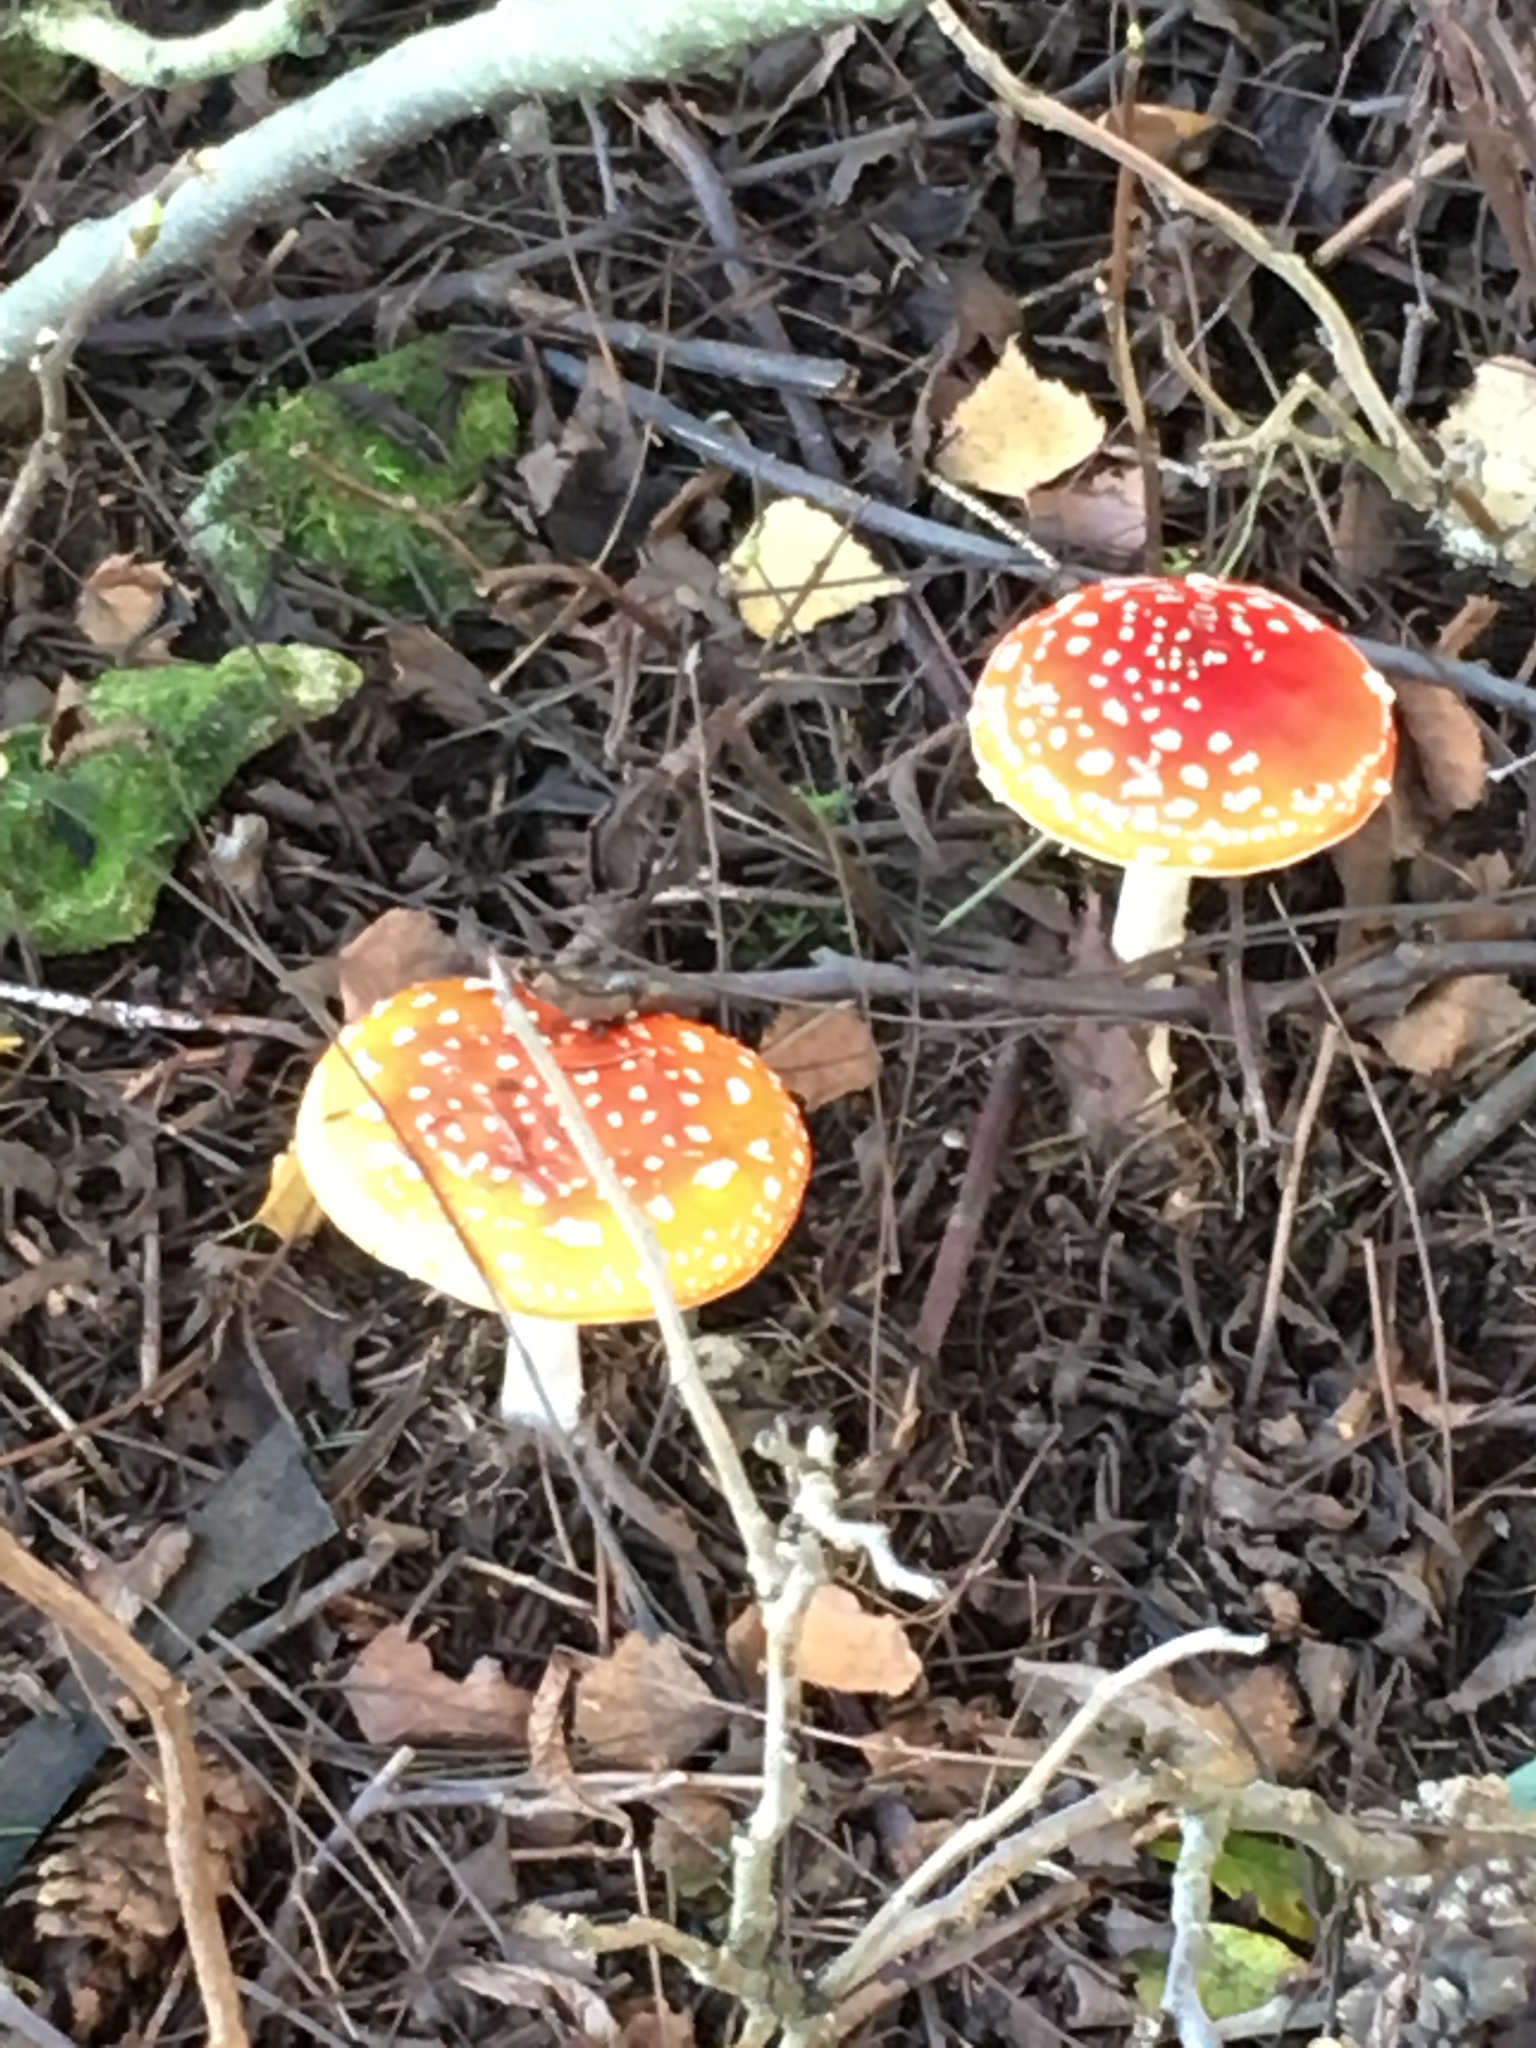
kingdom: Fungi
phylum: Basidiomycota
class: Agaricomycetes
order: Agaricales
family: Amanitaceae
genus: Amanita
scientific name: Amanita muscaria
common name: Fly agaric
